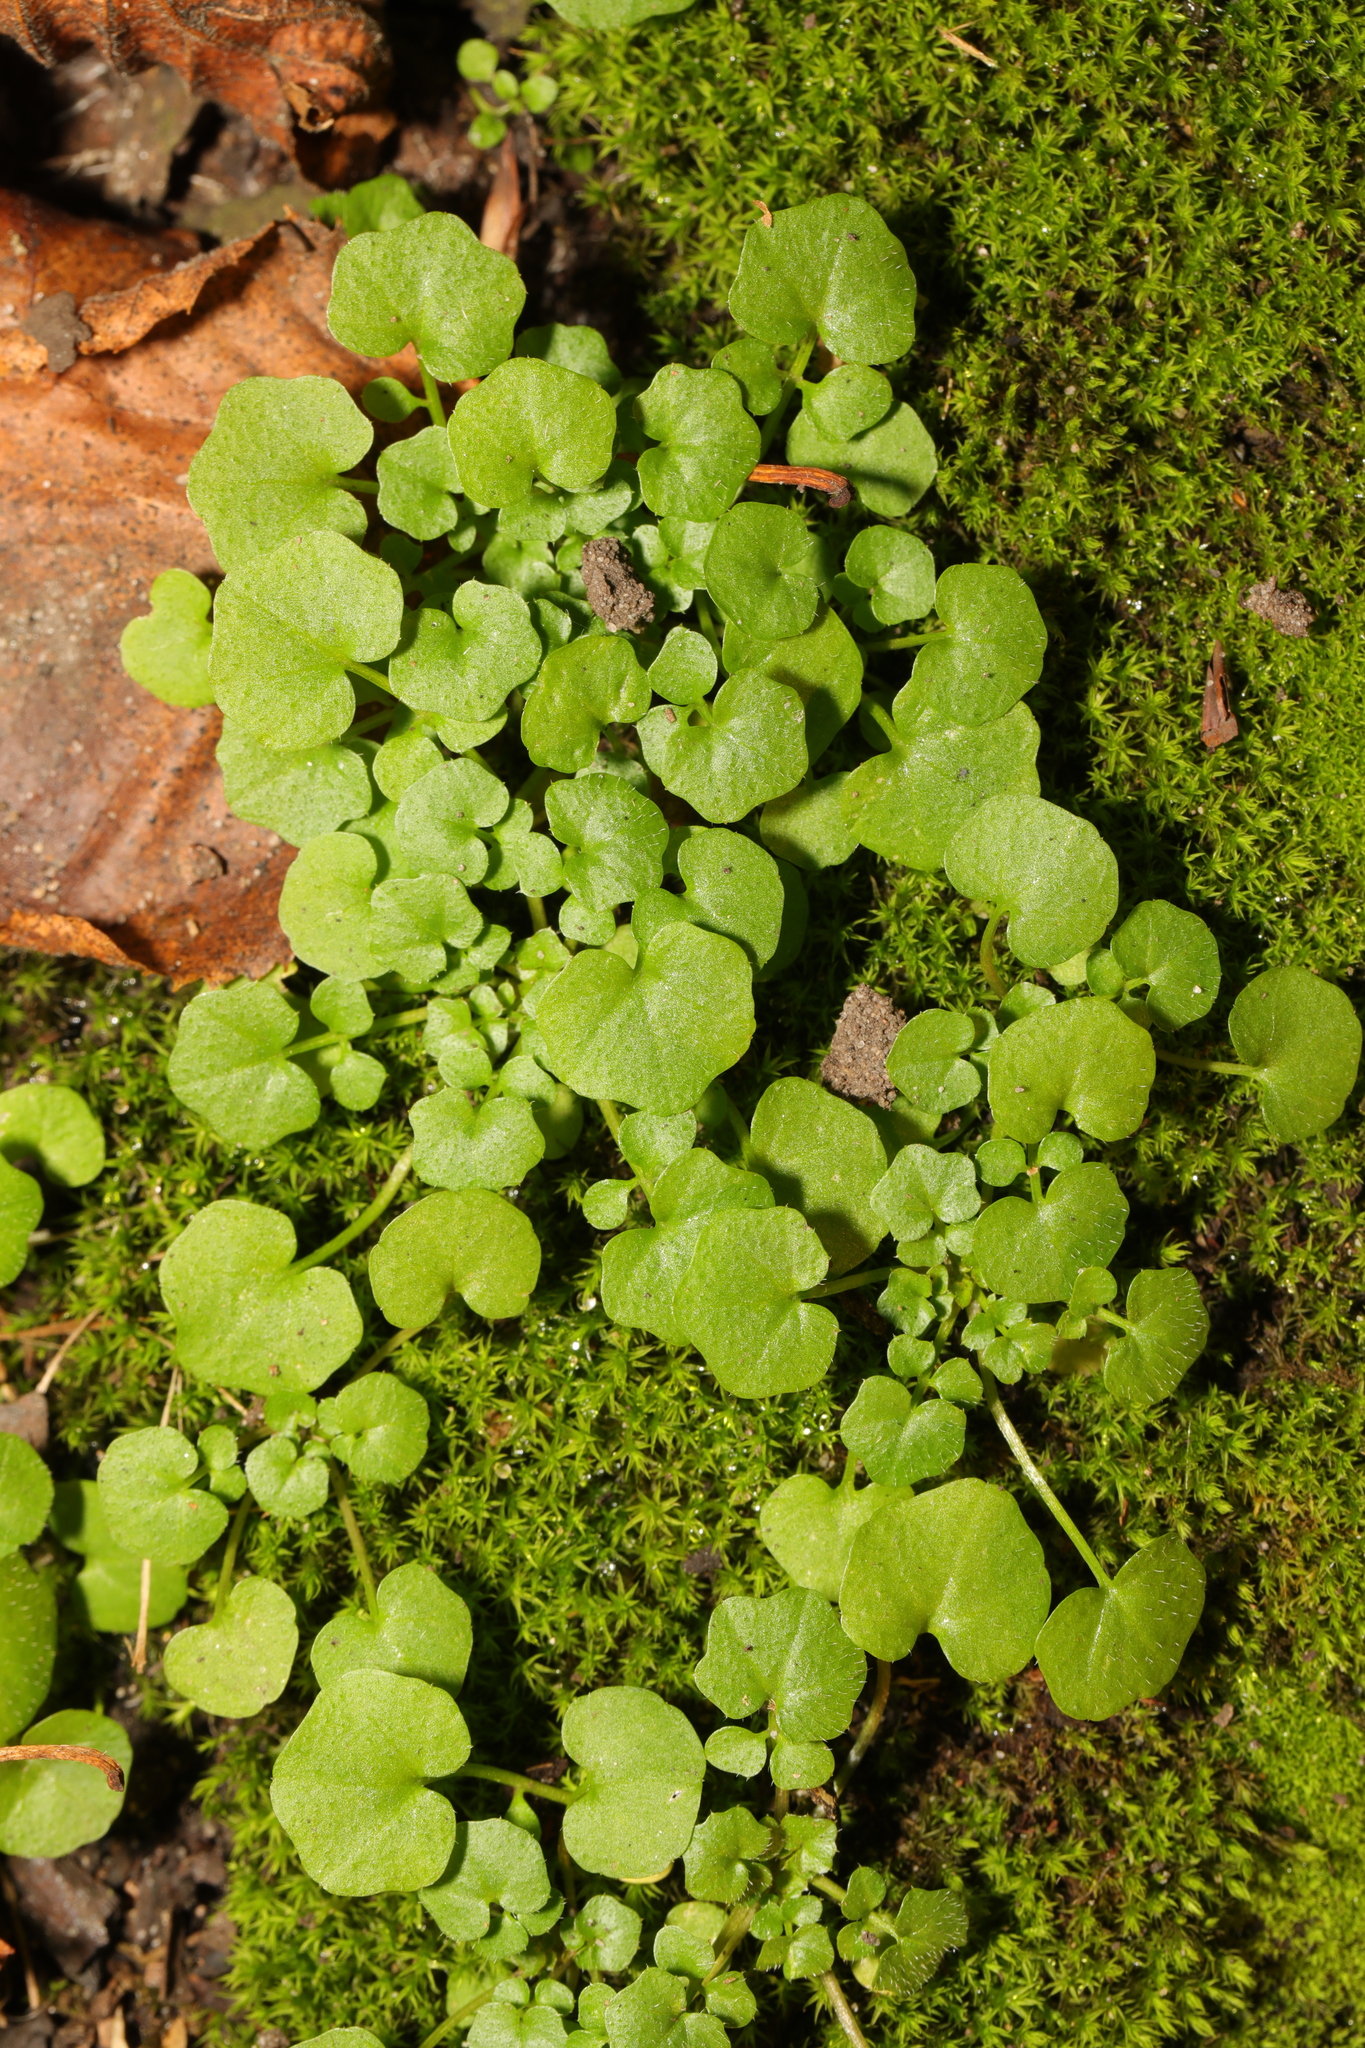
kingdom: Plantae
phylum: Tracheophyta
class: Magnoliopsida
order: Brassicales
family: Brassicaceae
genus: Cardamine
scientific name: Cardamine hirsuta
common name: Hairy bittercress
